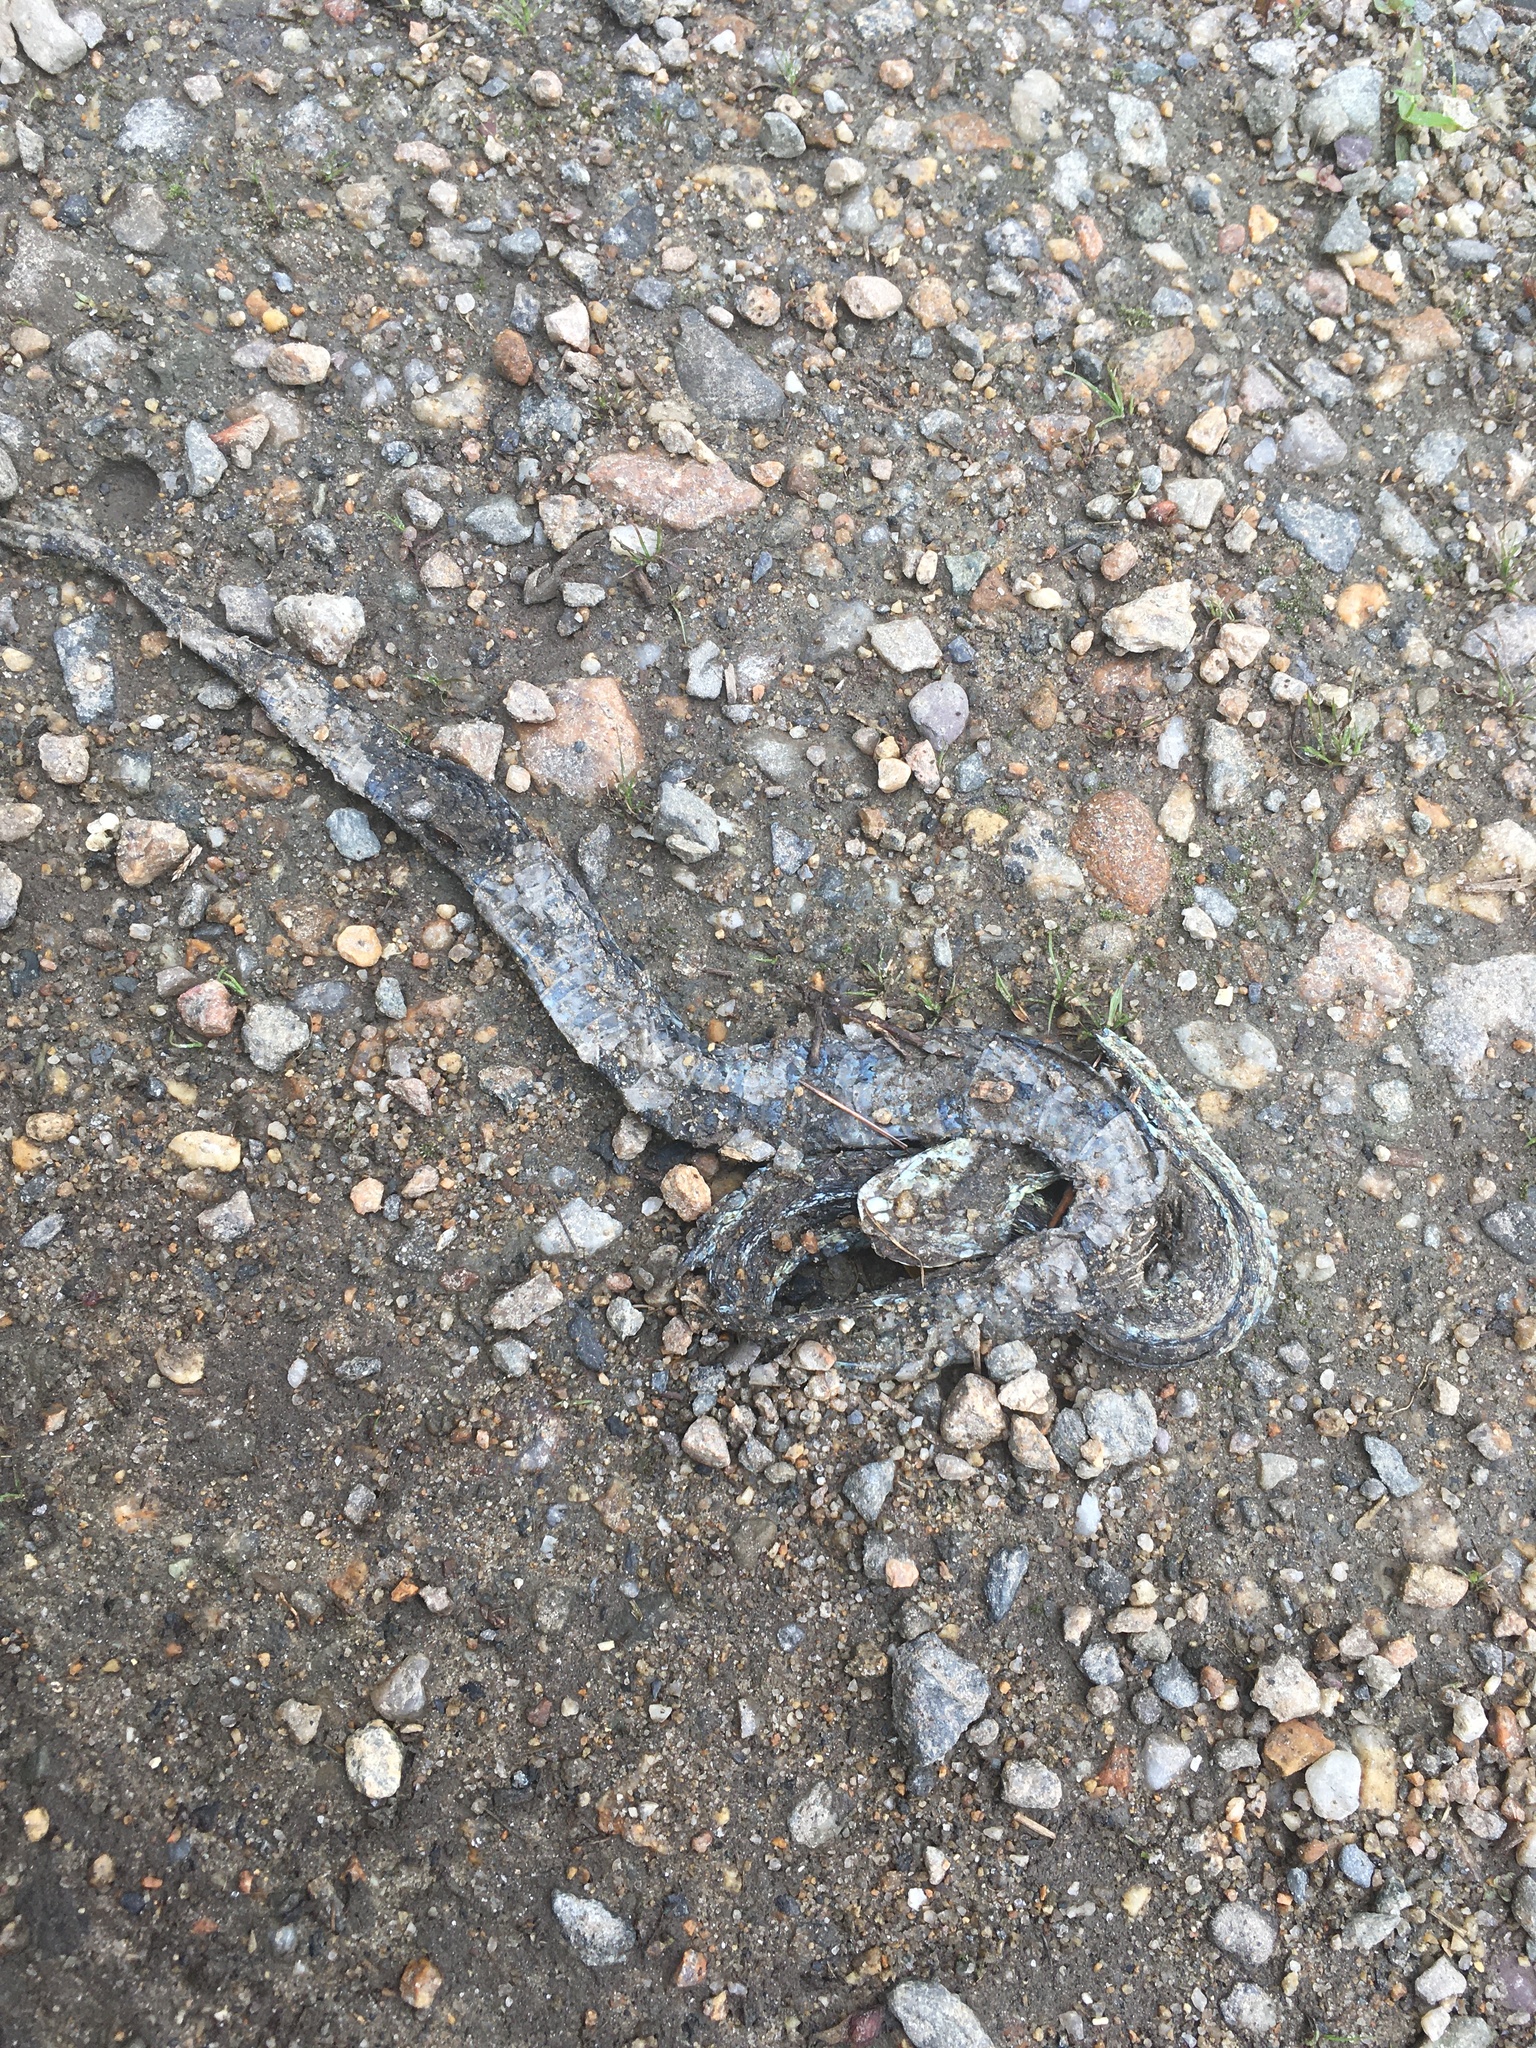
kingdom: Animalia
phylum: Chordata
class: Squamata
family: Colubridae
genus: Thamnophis
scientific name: Thamnophis sirtalis
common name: Common garter snake
